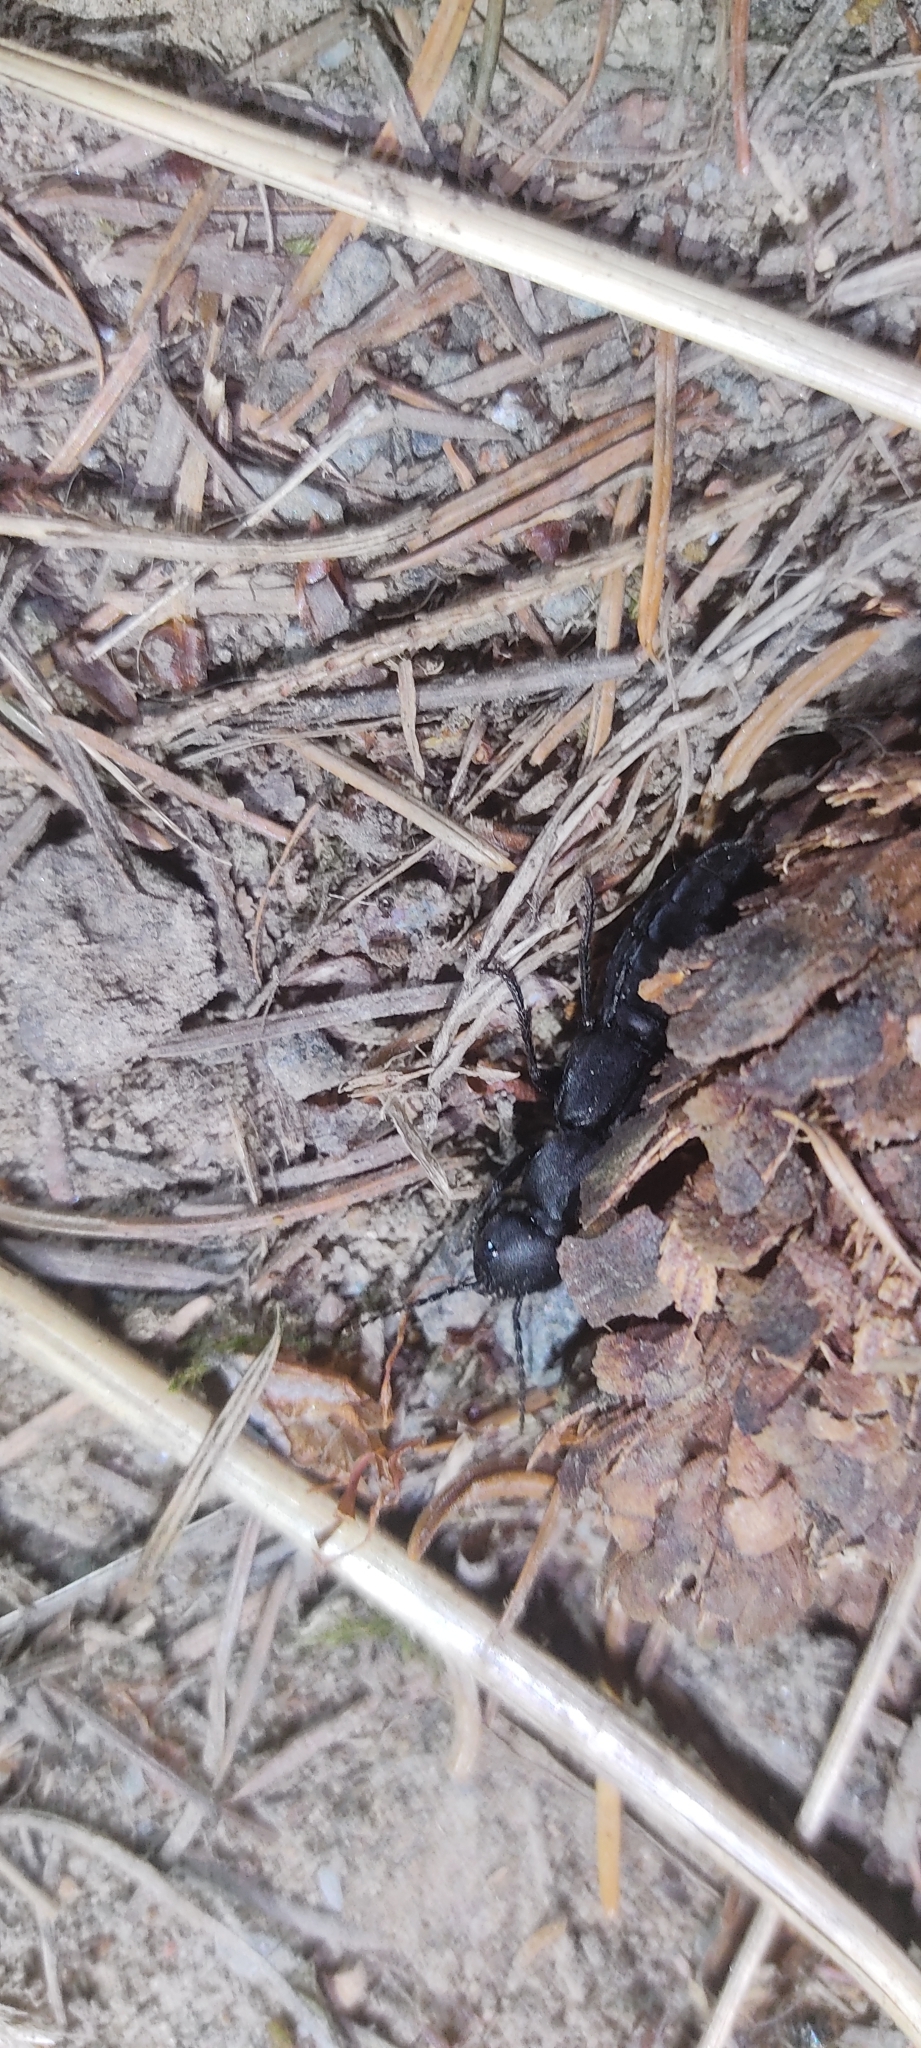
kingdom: Animalia
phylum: Arthropoda
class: Insecta
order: Coleoptera
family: Staphylinidae
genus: Ocypus
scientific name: Ocypus olens
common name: Devil's coach-horse
